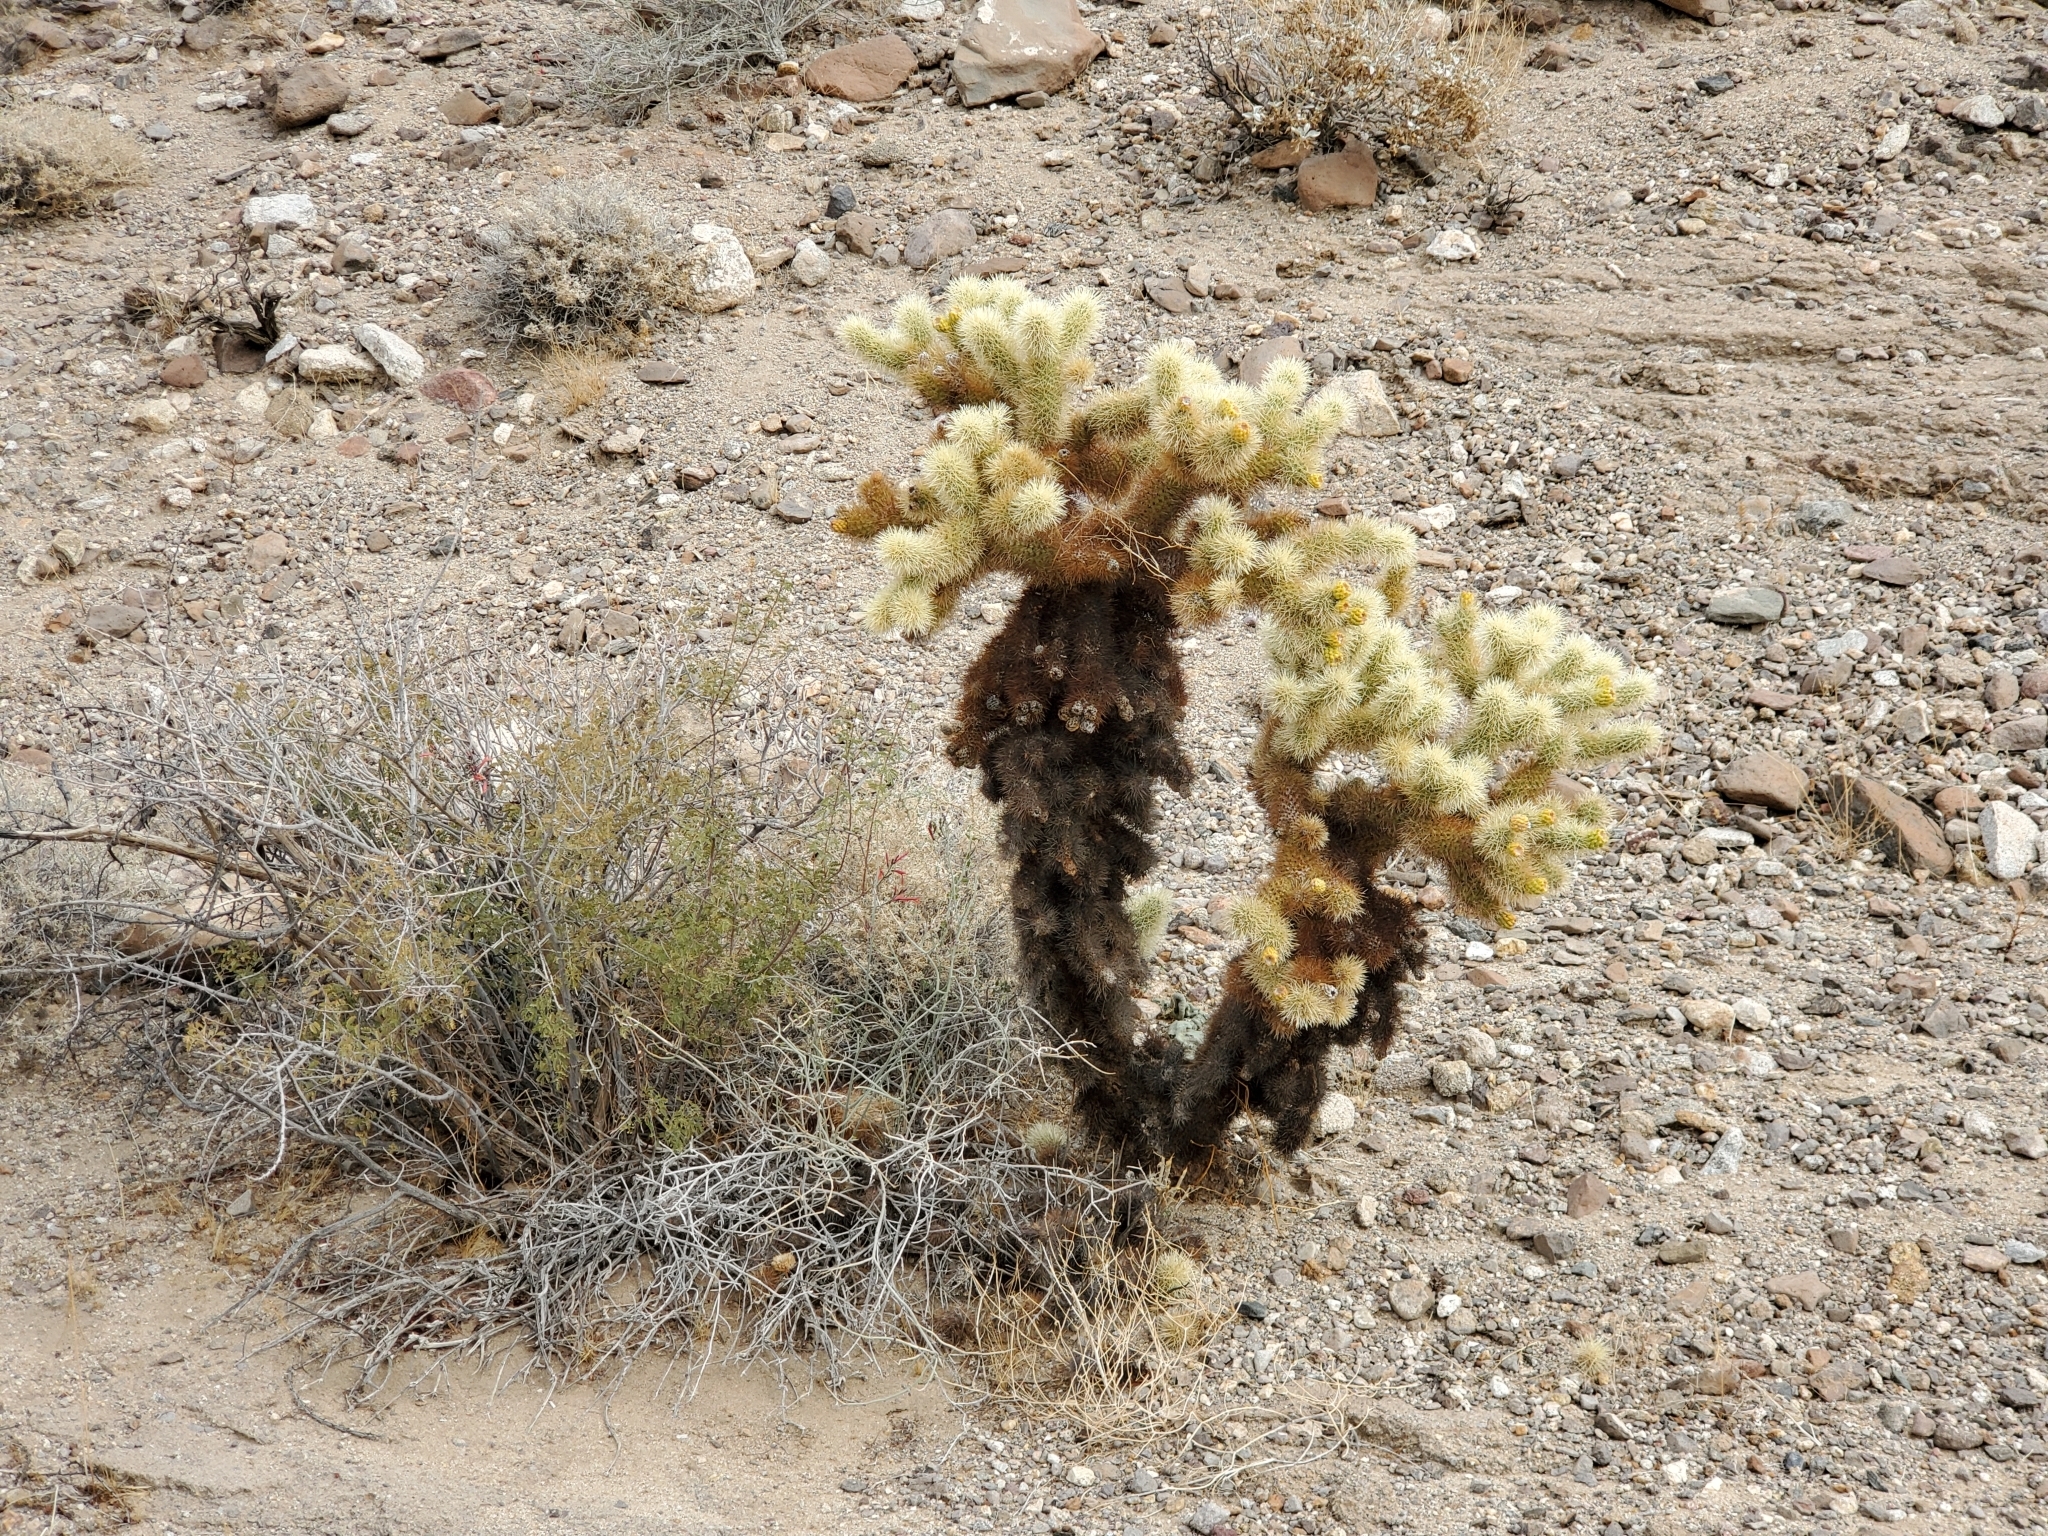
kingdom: Plantae
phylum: Tracheophyta
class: Magnoliopsida
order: Caryophyllales
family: Cactaceae
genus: Cylindropuntia
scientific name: Cylindropuntia fosbergii
